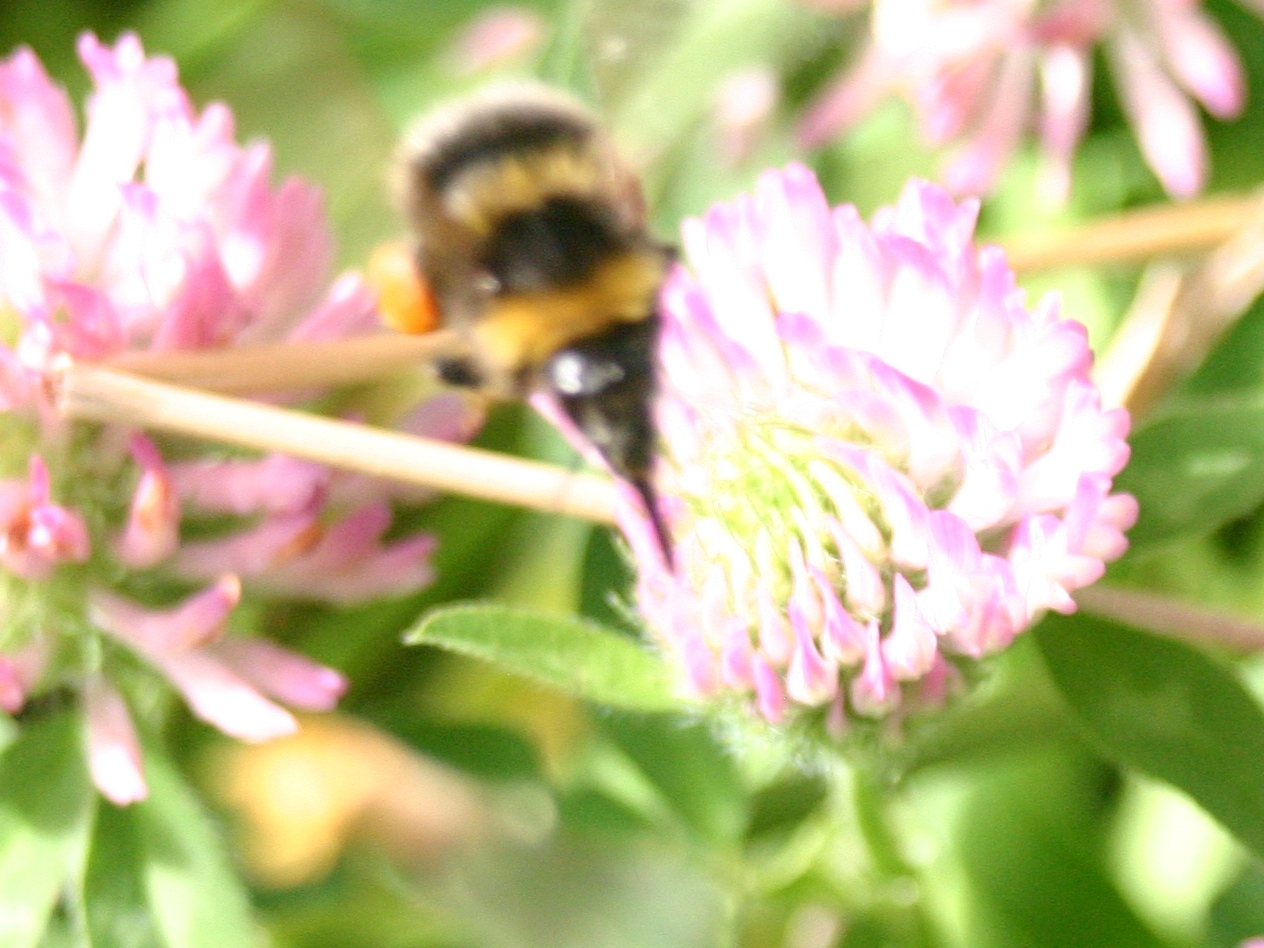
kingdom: Animalia
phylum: Arthropoda
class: Insecta
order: Hymenoptera
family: Apidae
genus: Bombus
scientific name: Bombus ruderatus
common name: Large garden bumblebee
